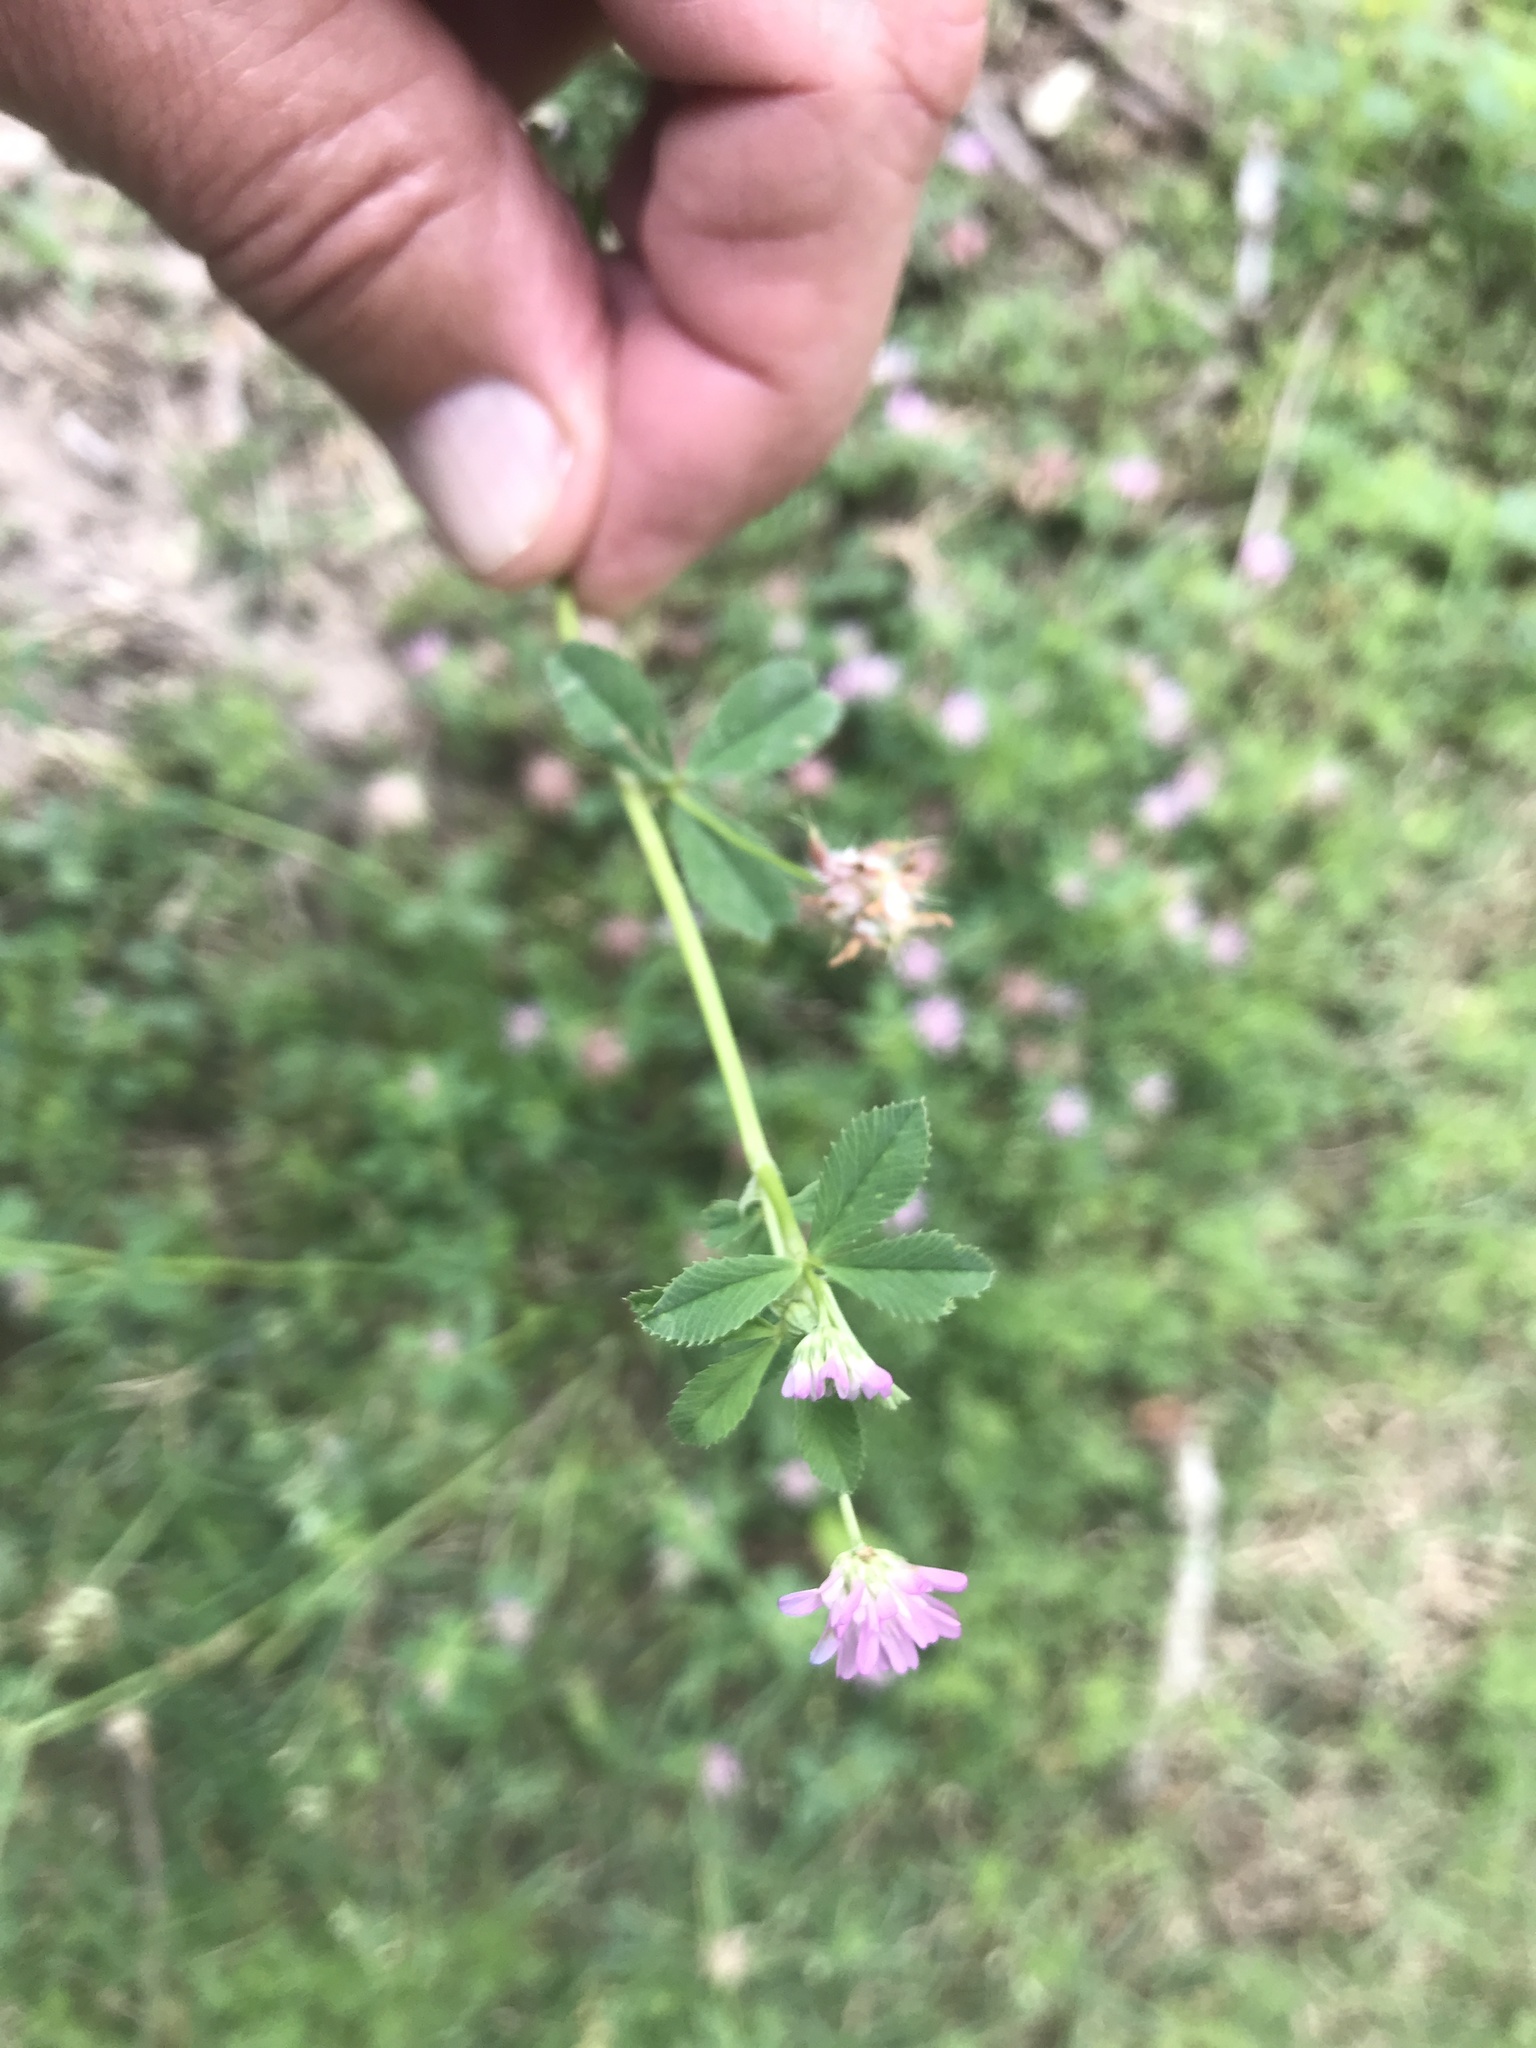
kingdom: Plantae
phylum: Tracheophyta
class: Magnoliopsida
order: Fabales
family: Fabaceae
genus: Trifolium
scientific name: Trifolium resupinatum
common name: Reversed clover
